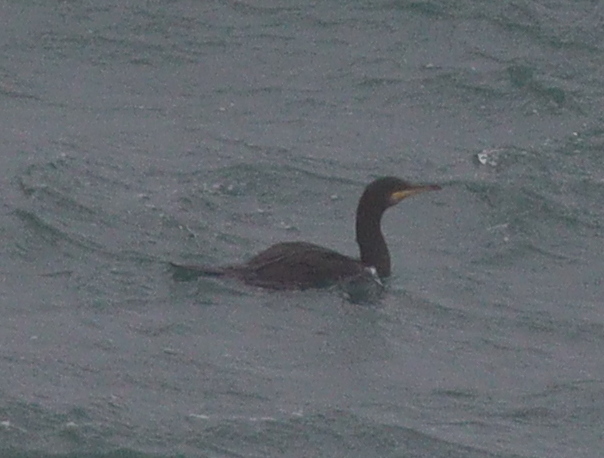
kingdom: Animalia
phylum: Chordata
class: Aves
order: Suliformes
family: Phalacrocoracidae
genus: Phalacrocorax
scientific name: Phalacrocorax aristotelis
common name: European shag
